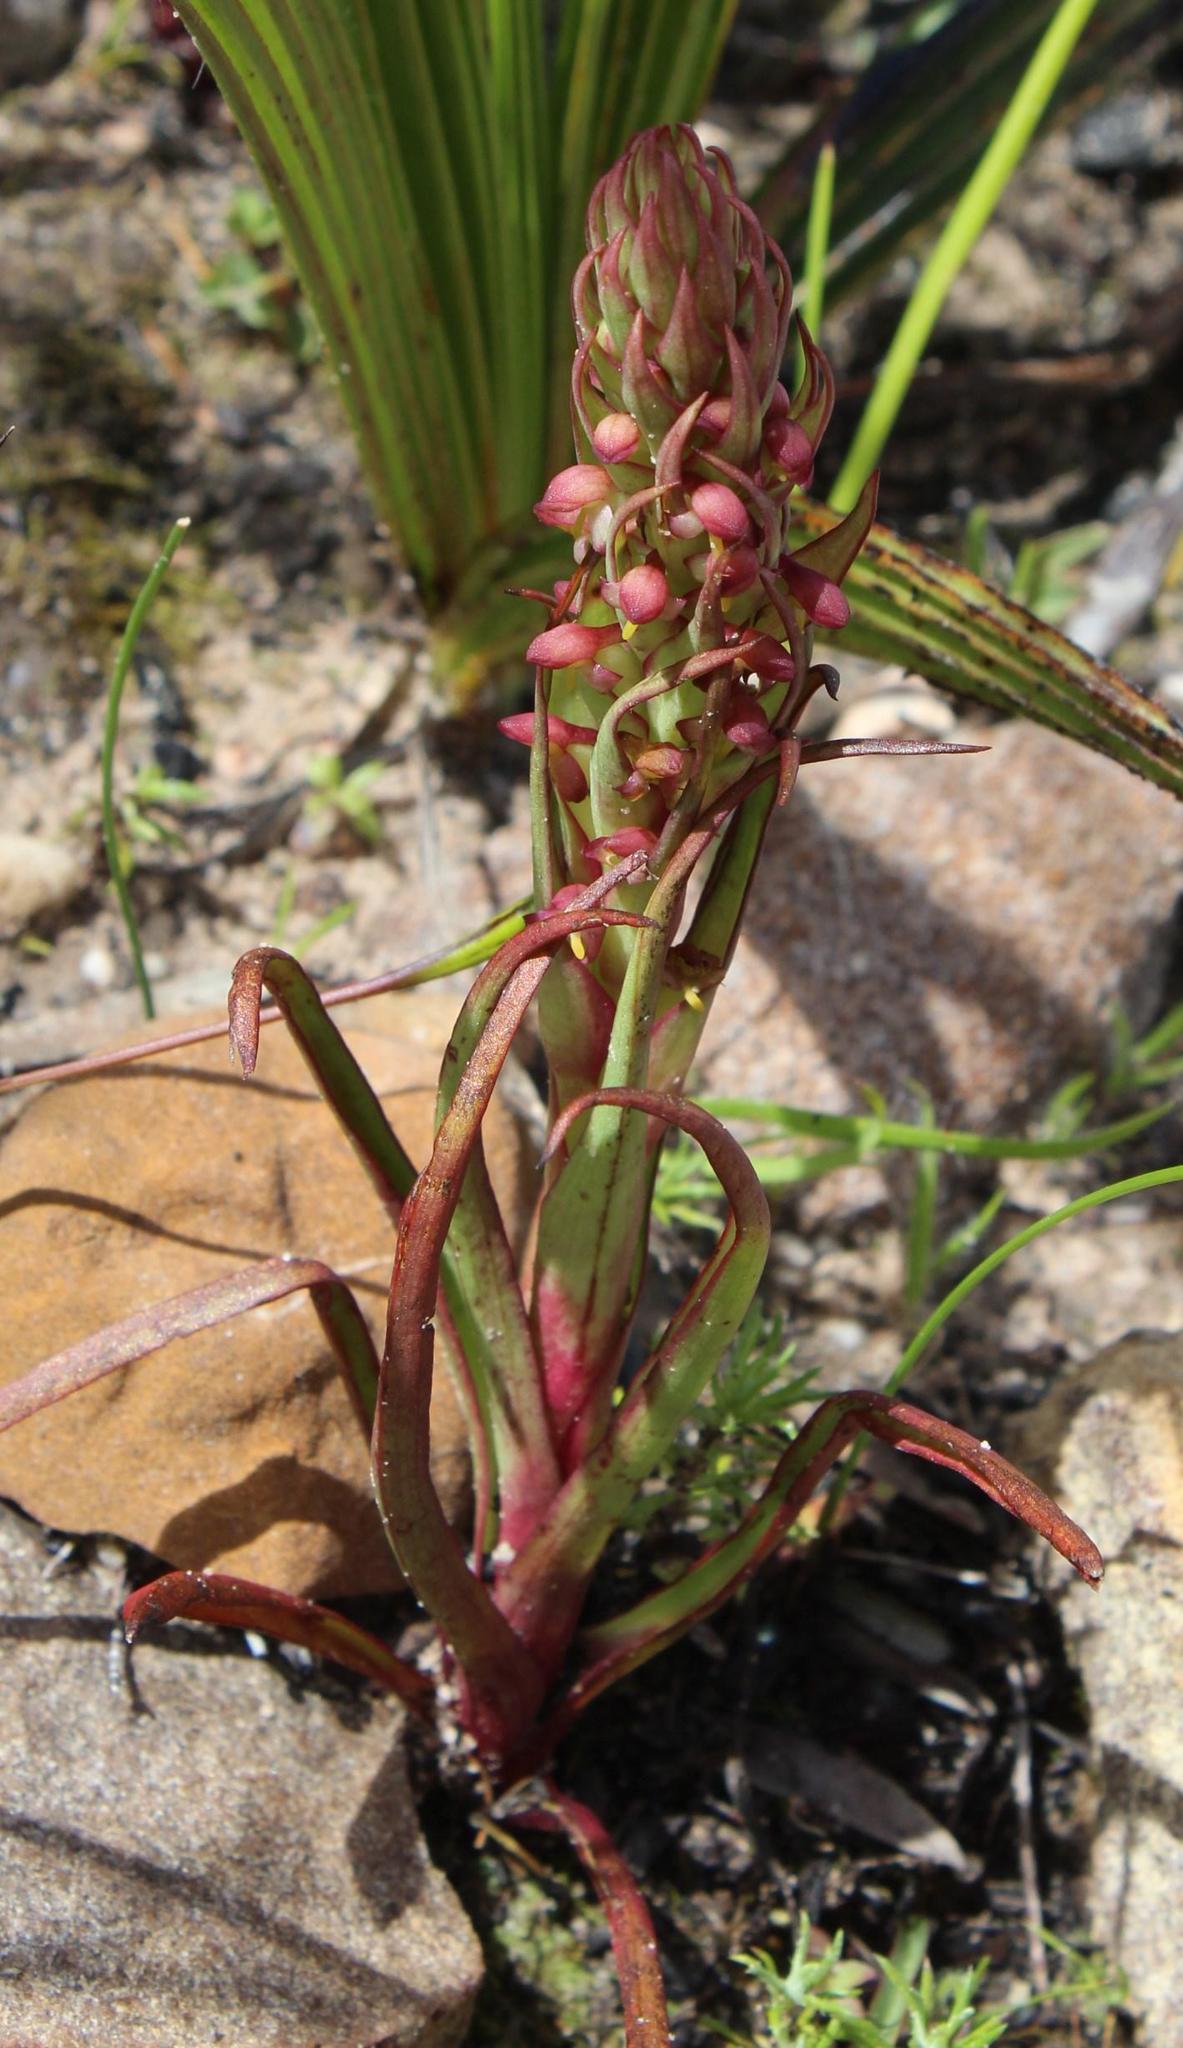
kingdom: Plantae
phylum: Tracheophyta
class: Liliopsida
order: Asparagales
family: Orchidaceae
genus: Disa
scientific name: Disa bracteata
